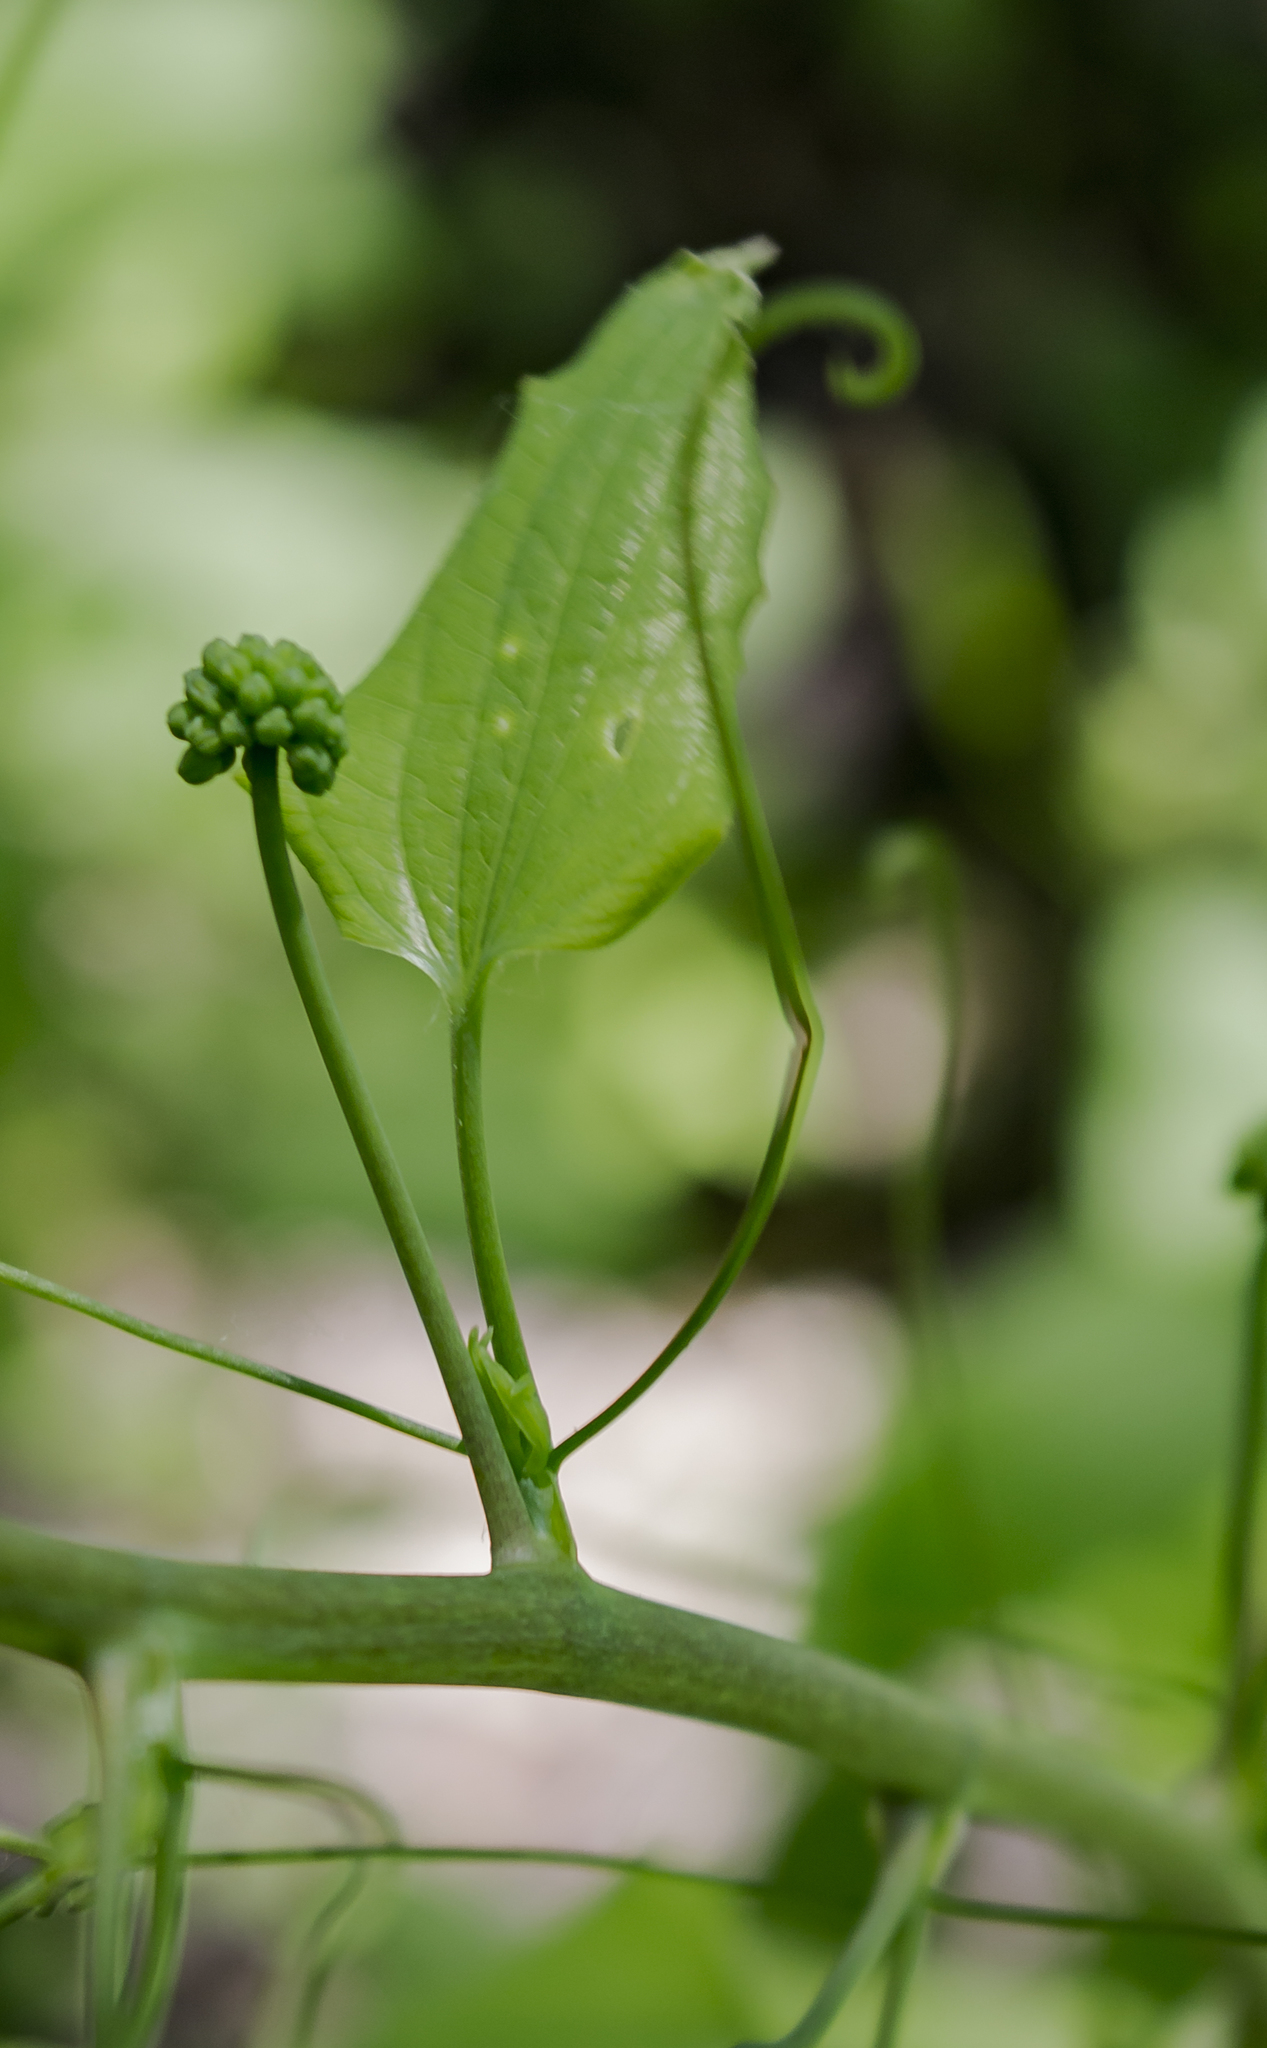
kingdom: Plantae
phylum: Tracheophyta
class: Liliopsida
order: Liliales
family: Smilacaceae
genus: Smilax
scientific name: Smilax lasioneura
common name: Blue ridge carrionflower
